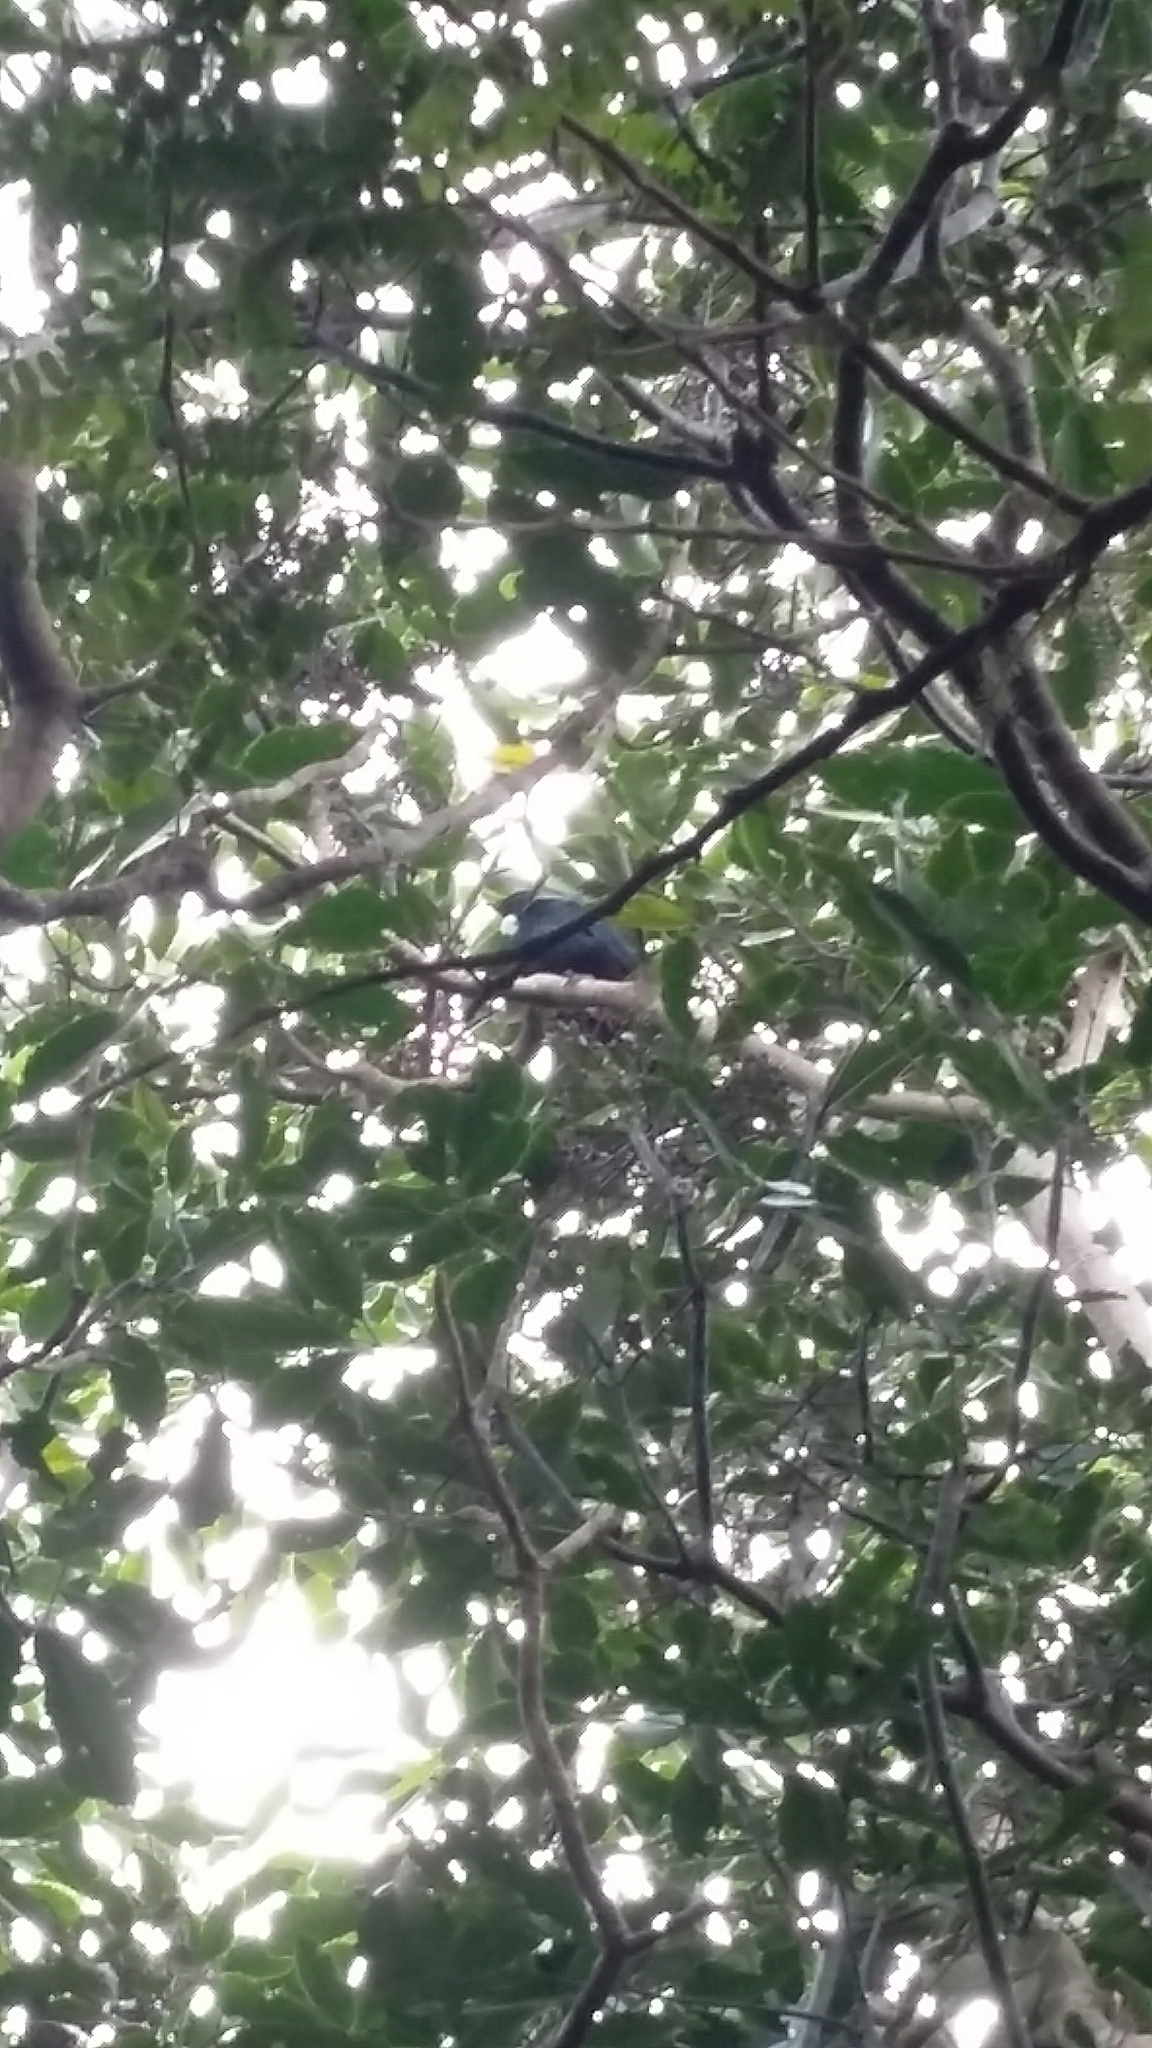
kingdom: Animalia
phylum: Chordata
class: Aves
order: Passeriformes
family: Meliphagidae
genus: Prosthemadera
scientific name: Prosthemadera novaeseelandiae
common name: Tui
